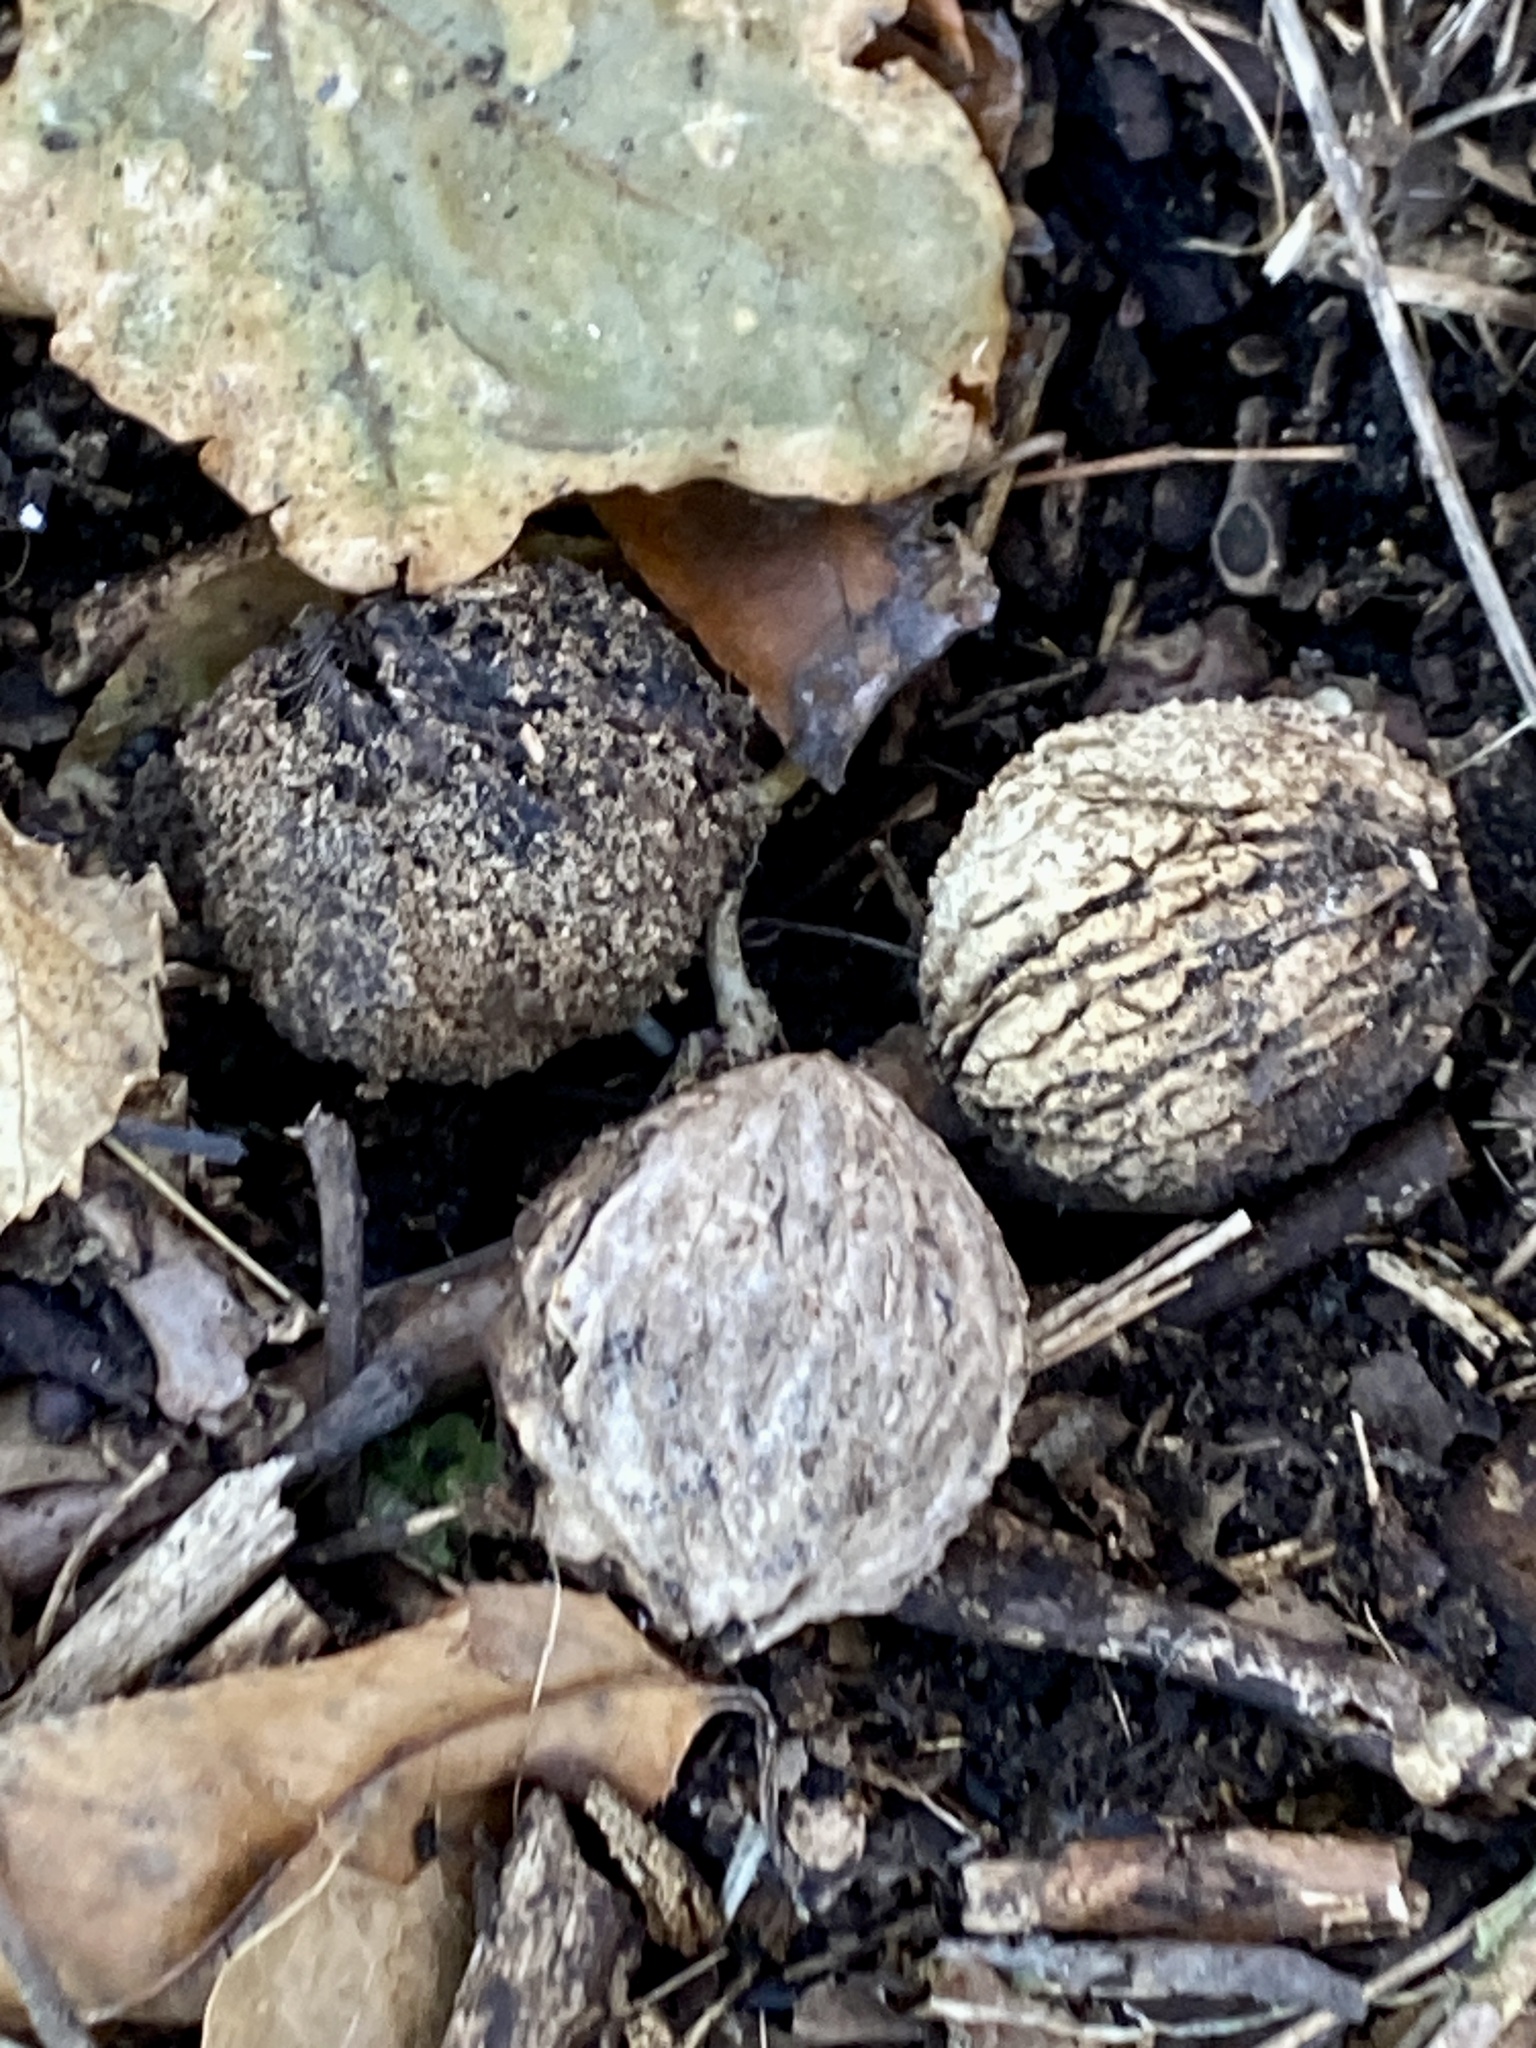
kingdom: Plantae
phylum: Tracheophyta
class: Magnoliopsida
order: Fagales
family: Juglandaceae
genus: Juglans
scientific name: Juglans nigra
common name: Black walnut
